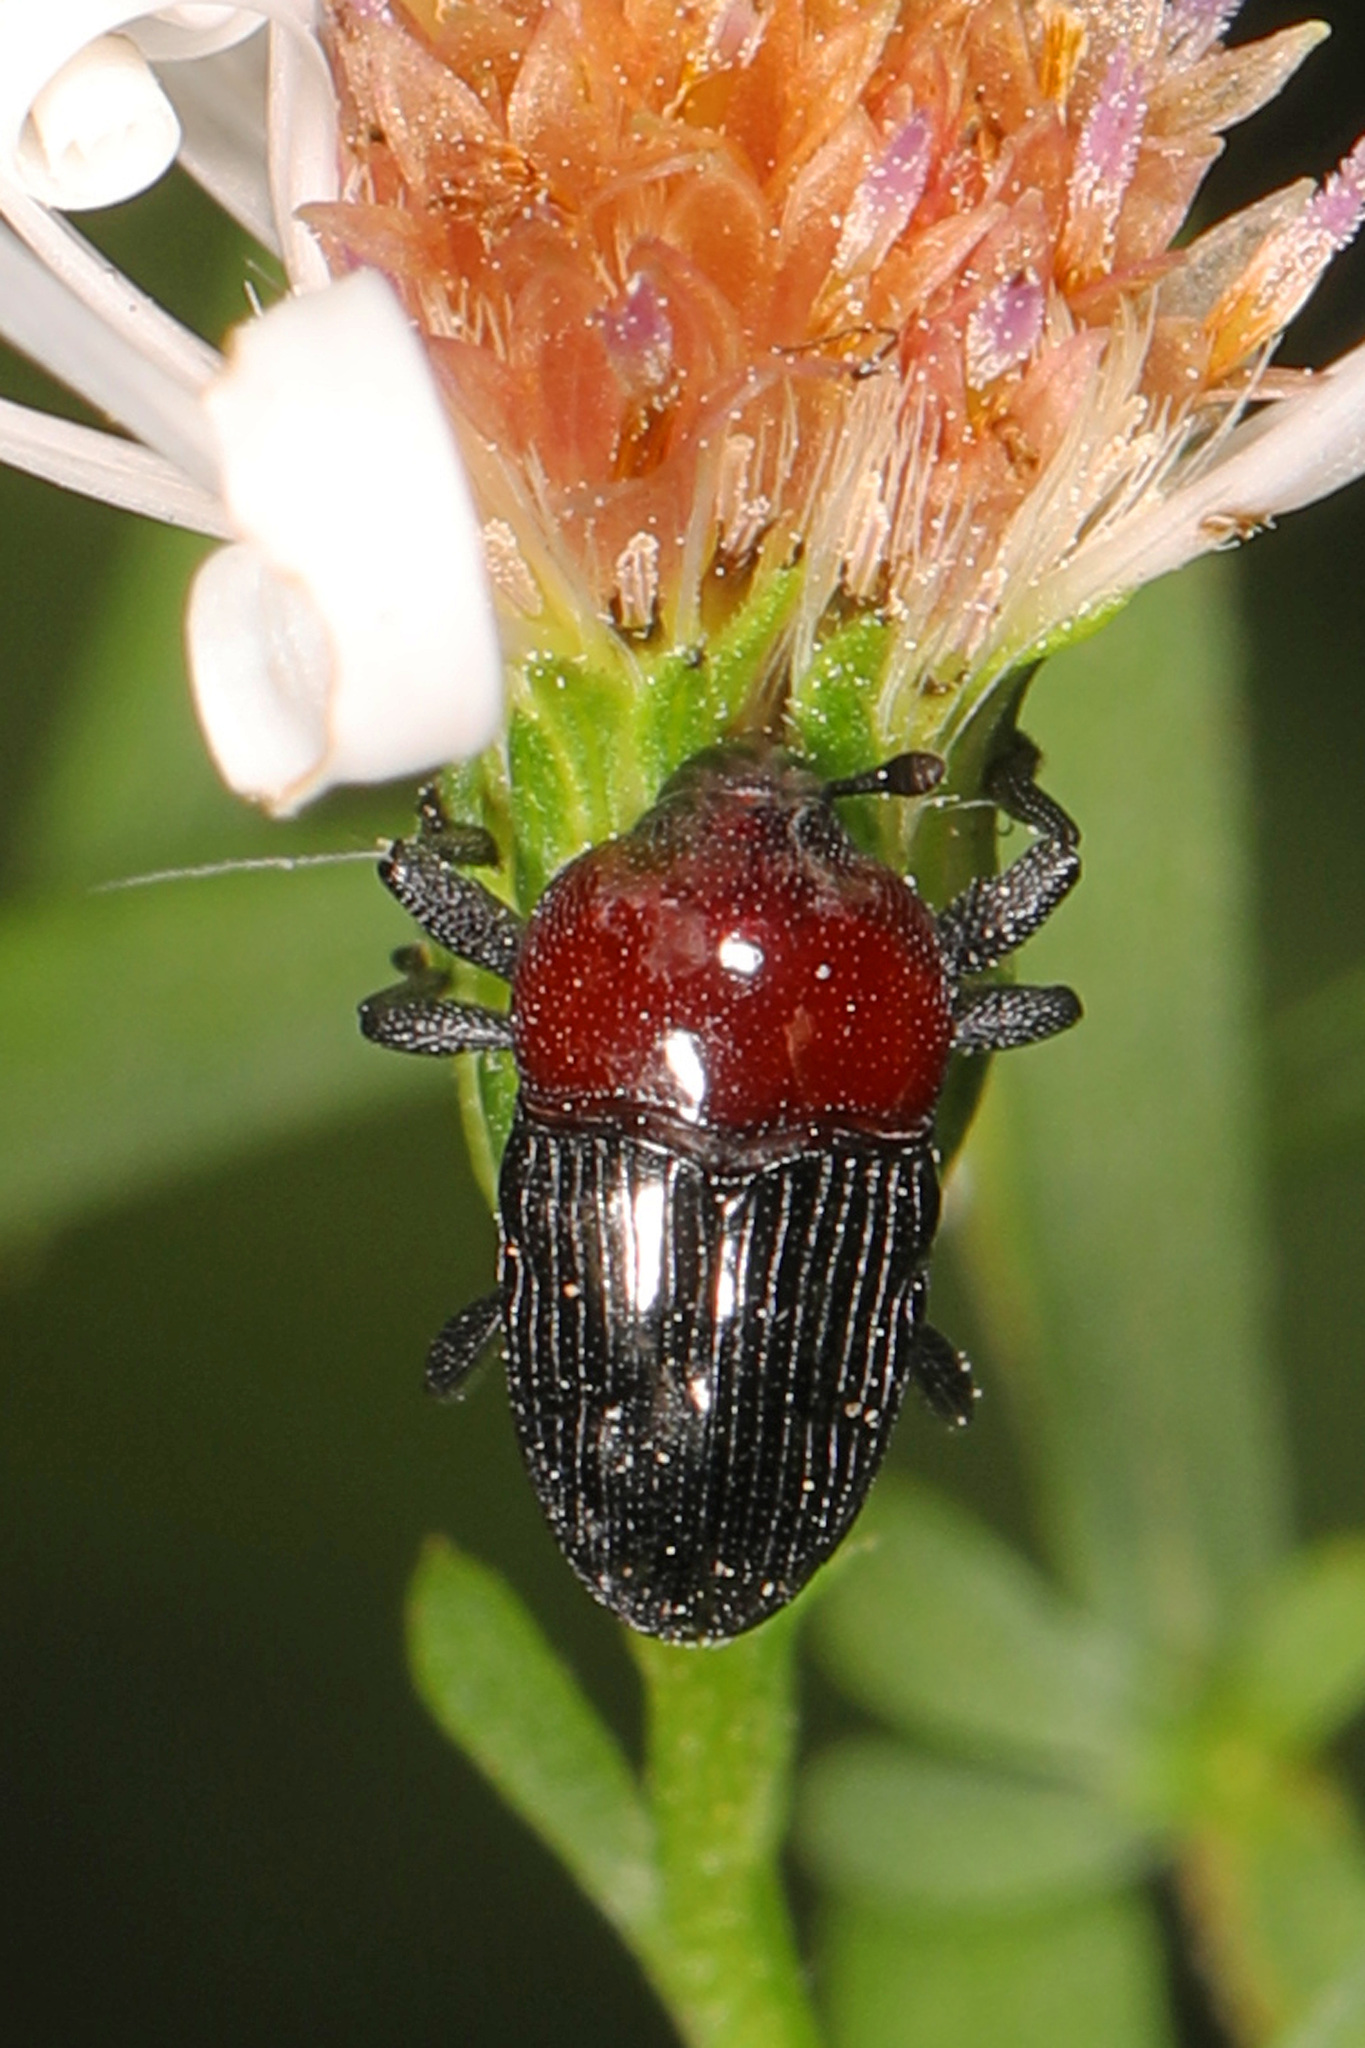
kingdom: Animalia
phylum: Arthropoda
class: Insecta
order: Coleoptera
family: Curculionidae
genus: Madarellus
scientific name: Madarellus undulatus
